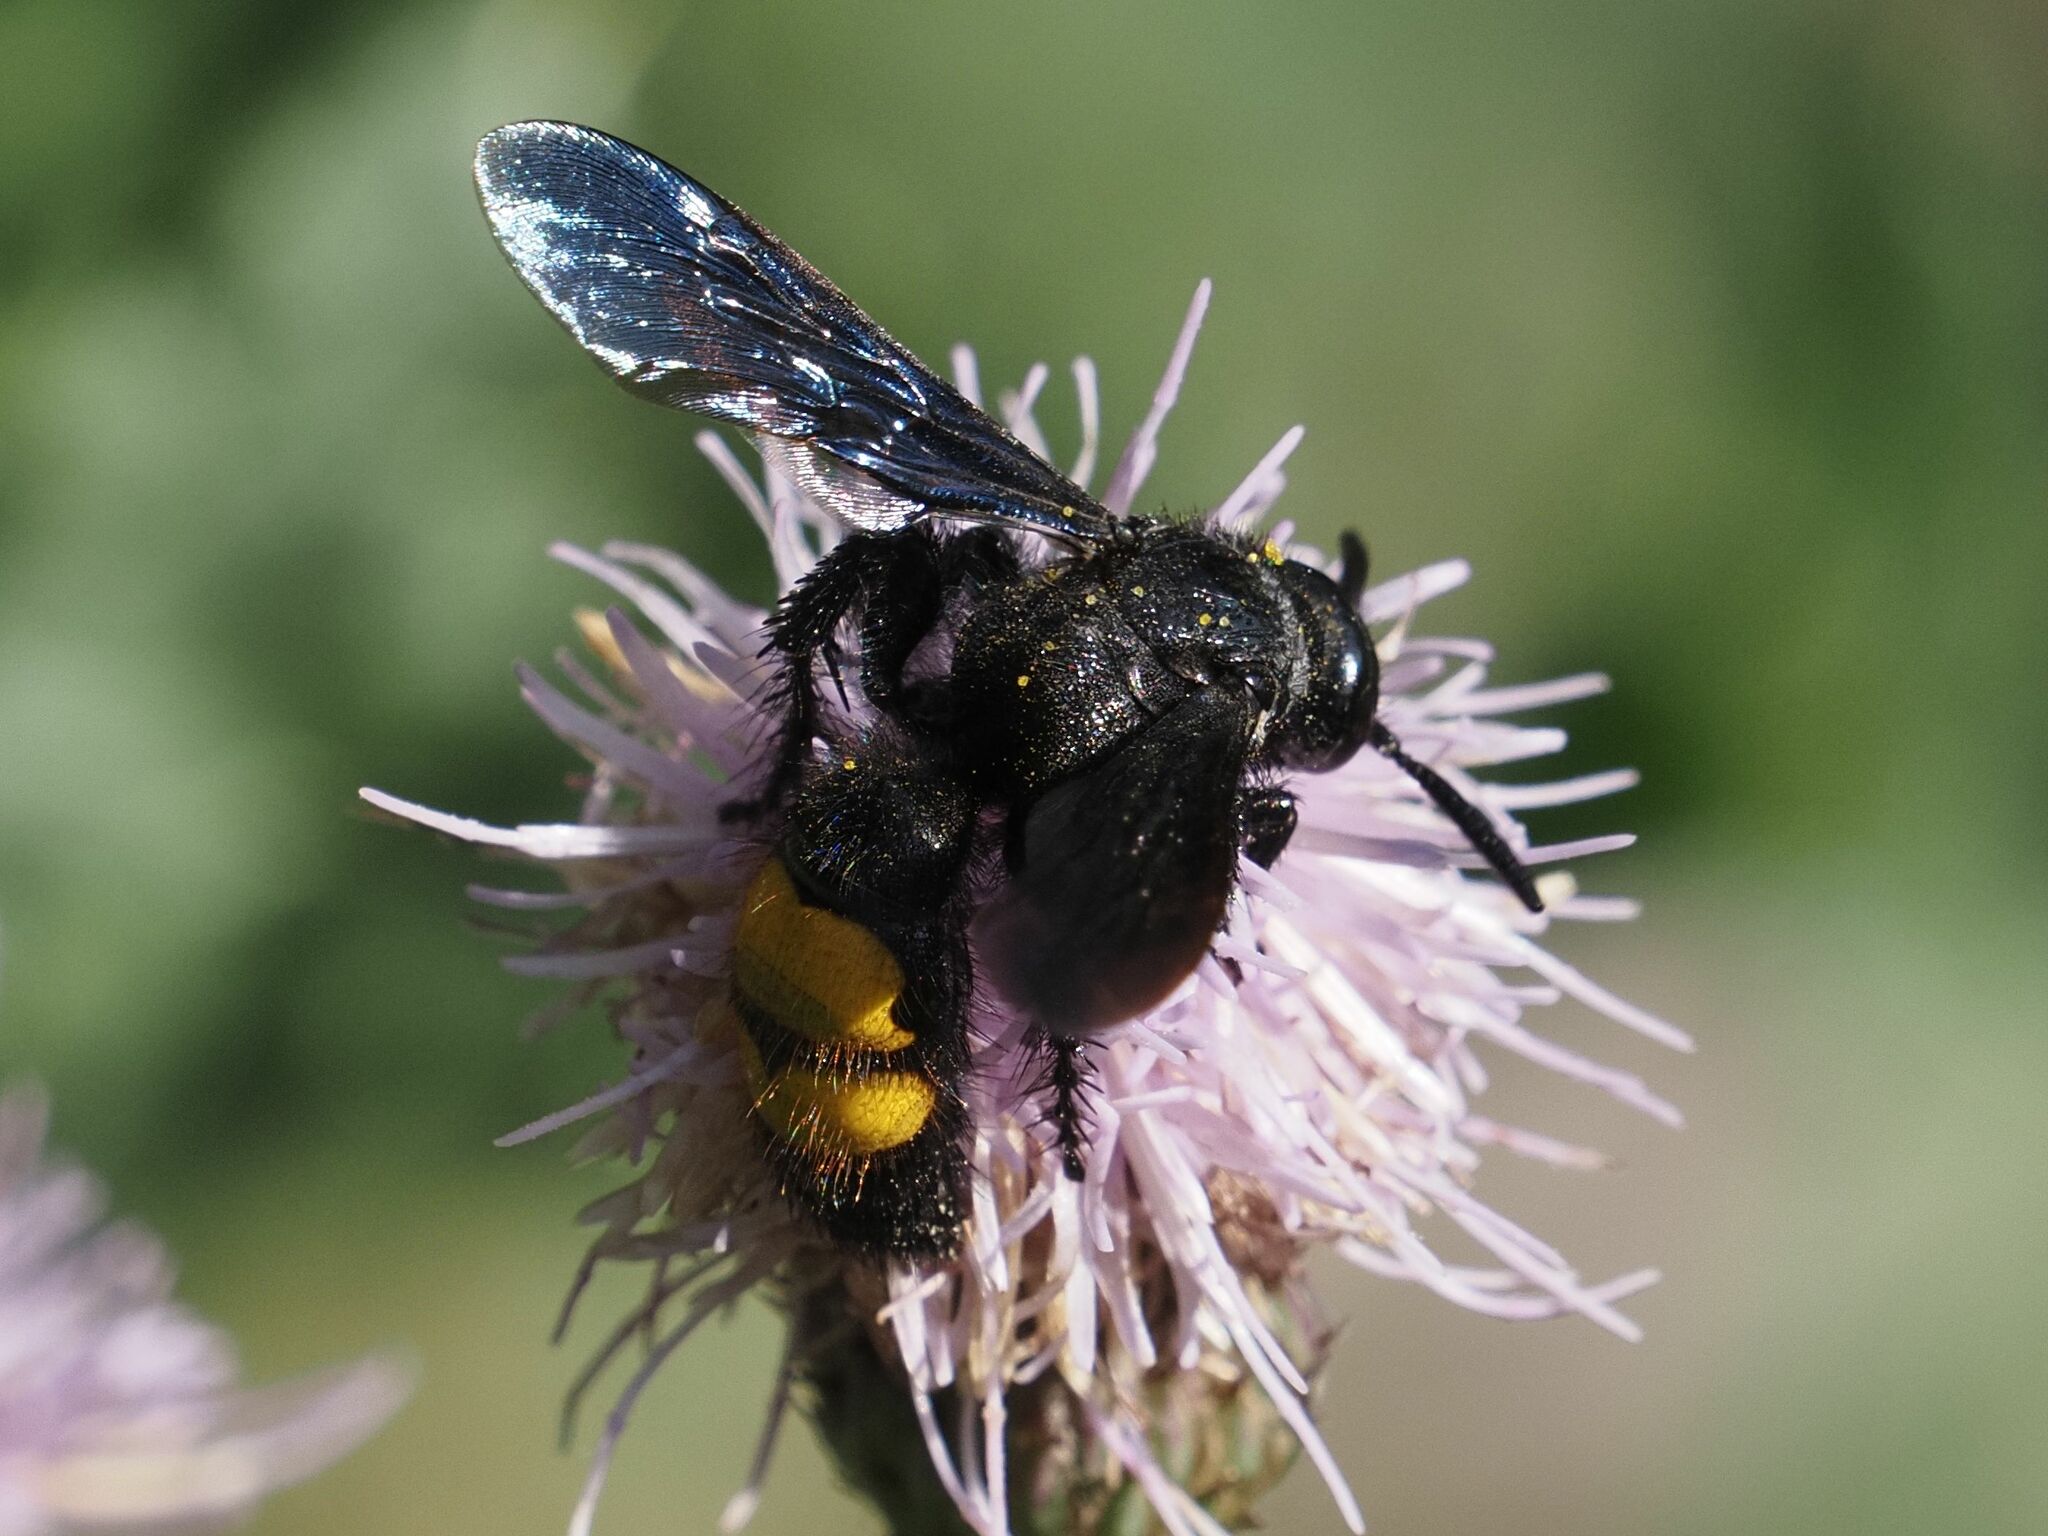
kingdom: Animalia
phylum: Arthropoda
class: Insecta
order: Hymenoptera
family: Scoliidae
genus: Scolia
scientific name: Scolia hirta
